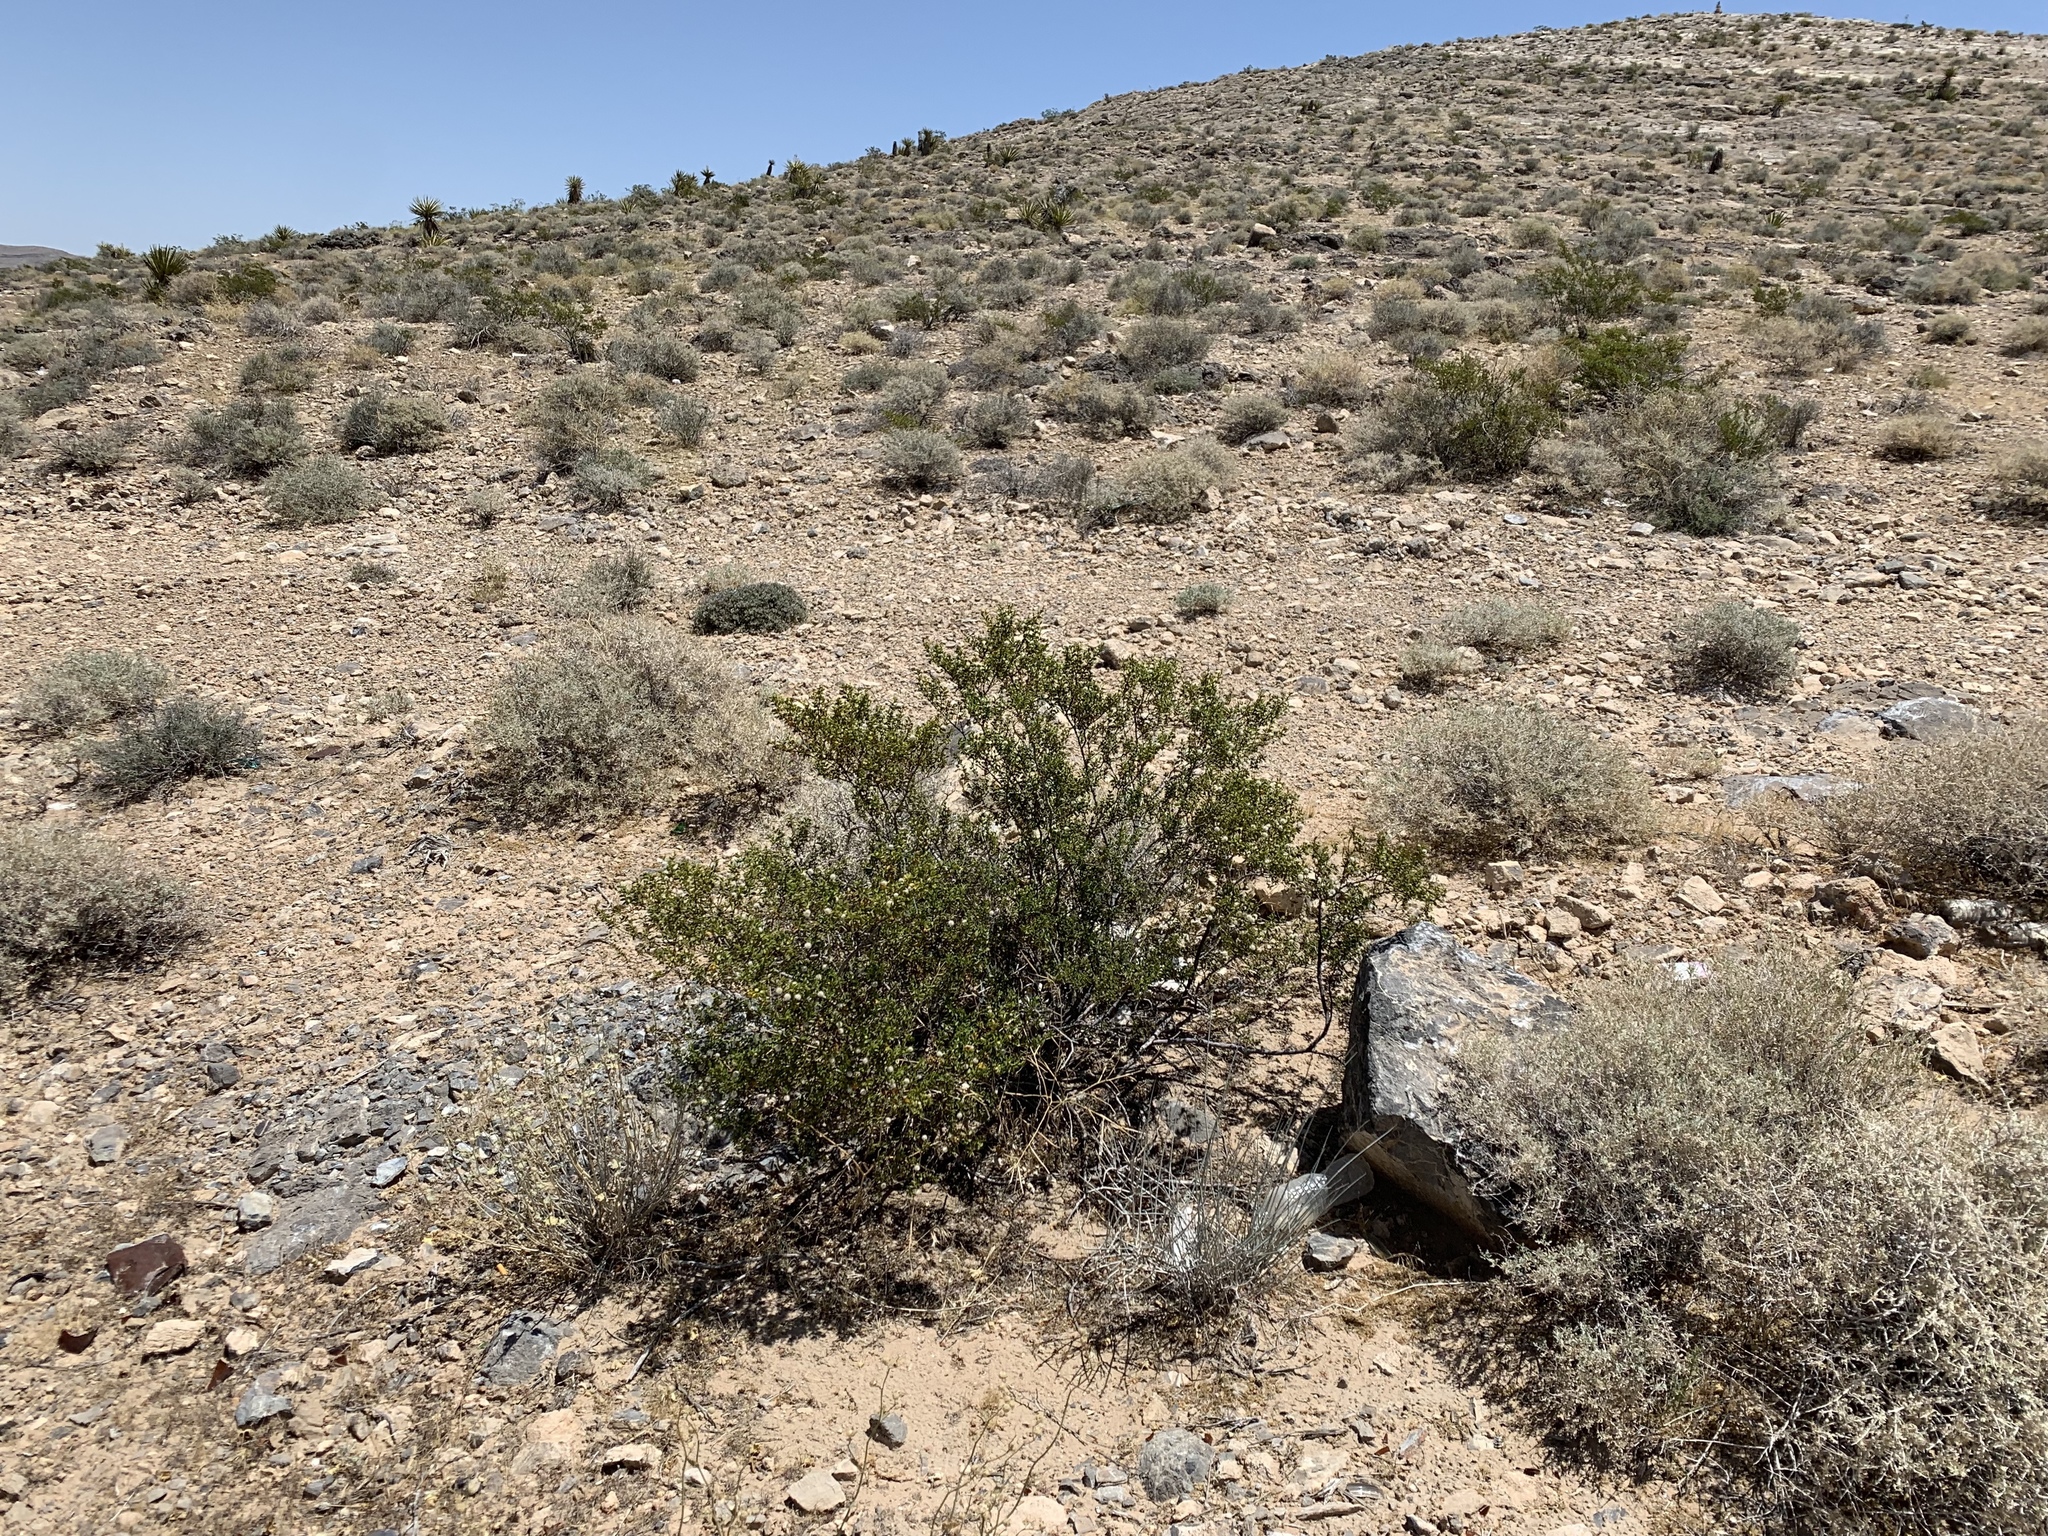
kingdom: Plantae
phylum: Tracheophyta
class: Magnoliopsida
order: Zygophyllales
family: Zygophyllaceae
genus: Larrea
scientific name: Larrea tridentata
